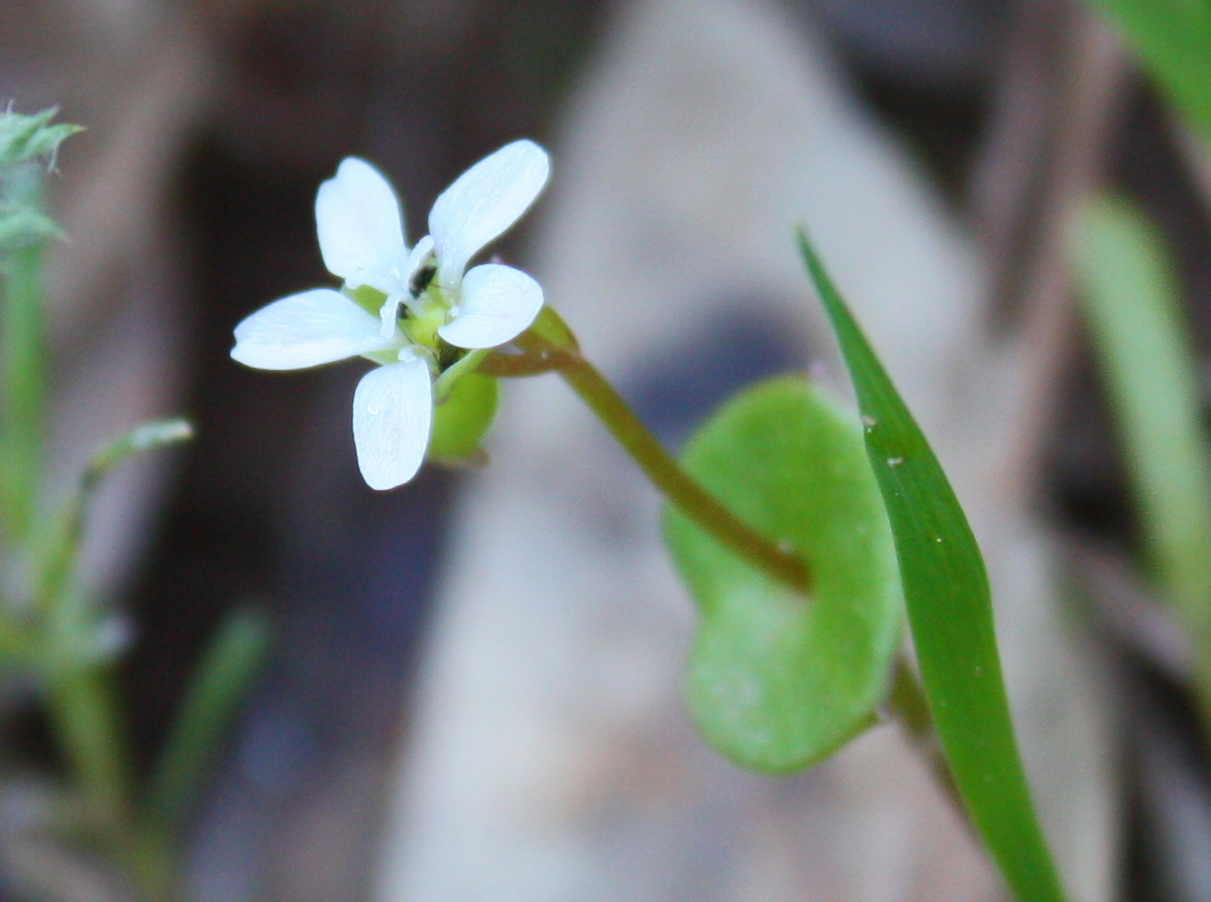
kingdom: Plantae
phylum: Tracheophyta
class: Magnoliopsida
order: Caryophyllales
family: Montiaceae
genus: Claytonia
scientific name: Claytonia perfoliata
